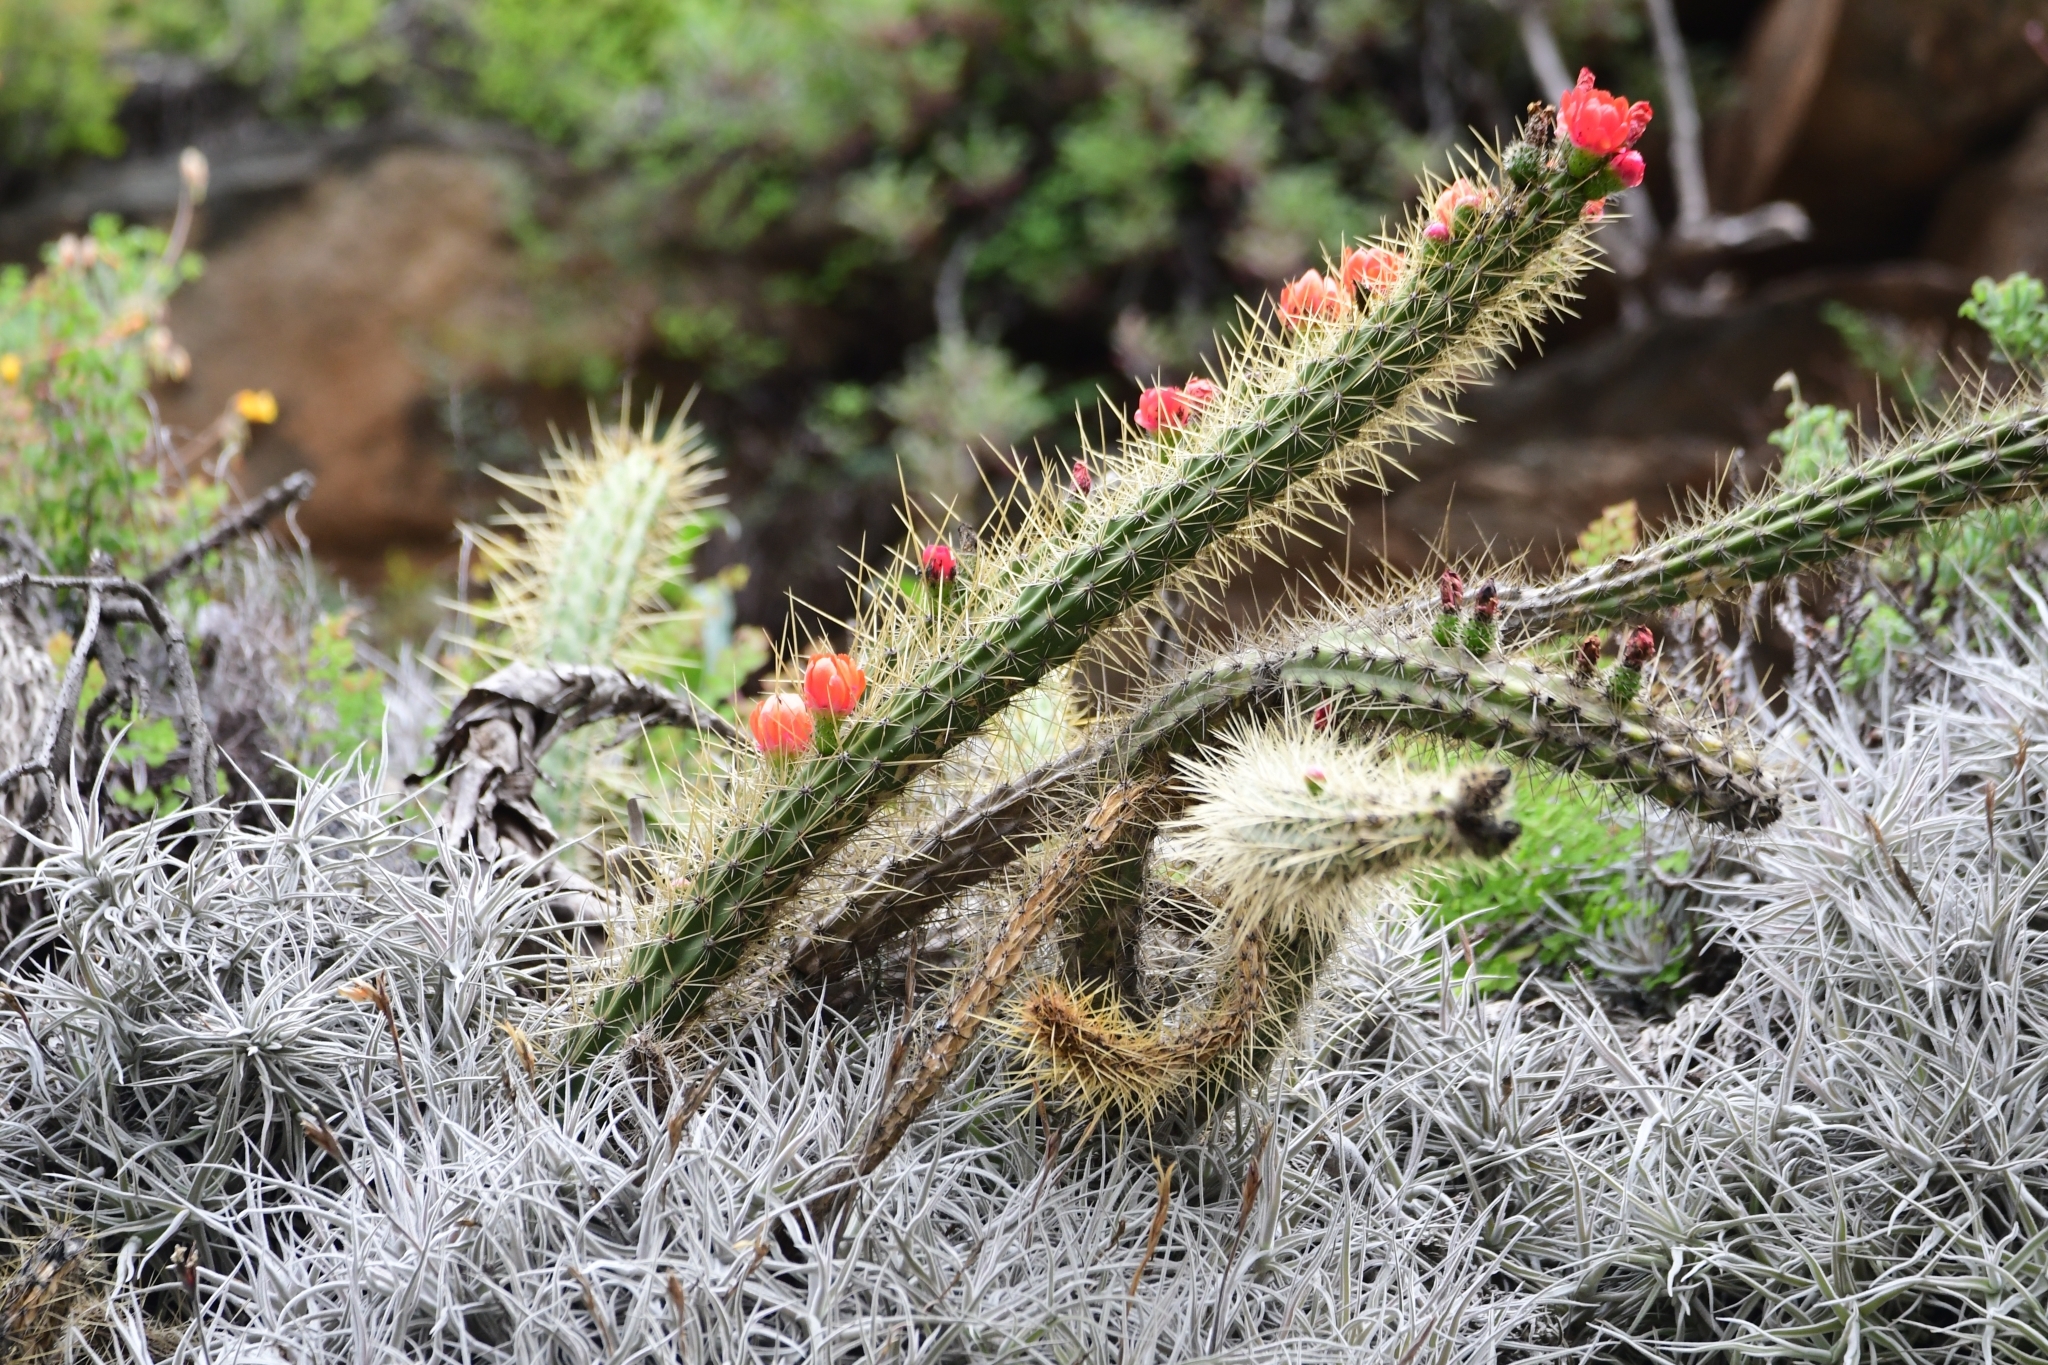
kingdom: Plantae
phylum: Tracheophyta
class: Magnoliopsida
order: Caryophyllales
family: Cactaceae
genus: Corryocactus
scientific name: Corryocactus erectus
